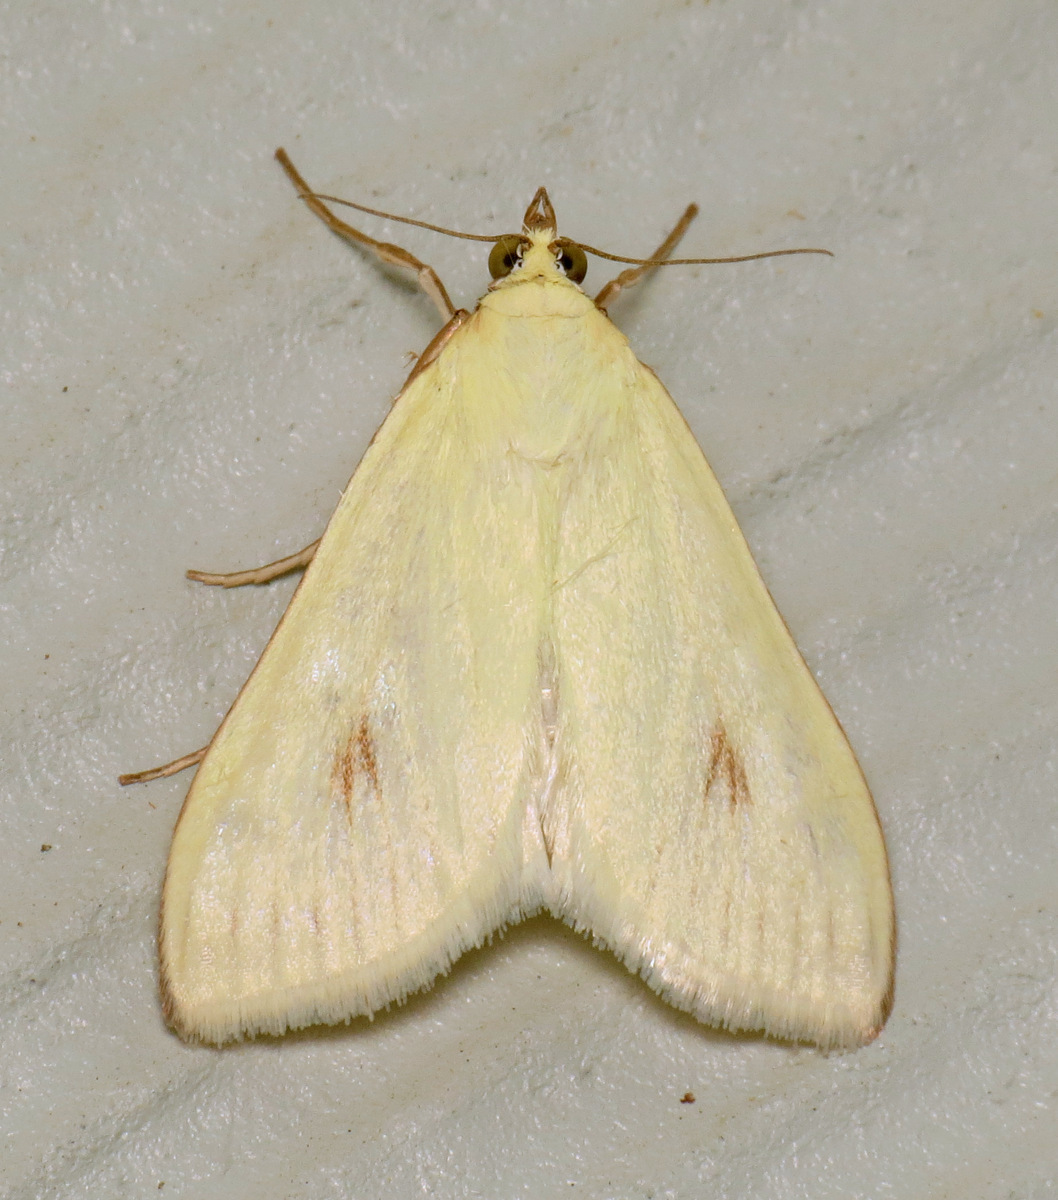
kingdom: Animalia
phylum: Arthropoda
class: Insecta
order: Lepidoptera
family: Crambidae
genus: Sitochroa
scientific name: Sitochroa palealis
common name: Greenish-yellow sitochroa moth
